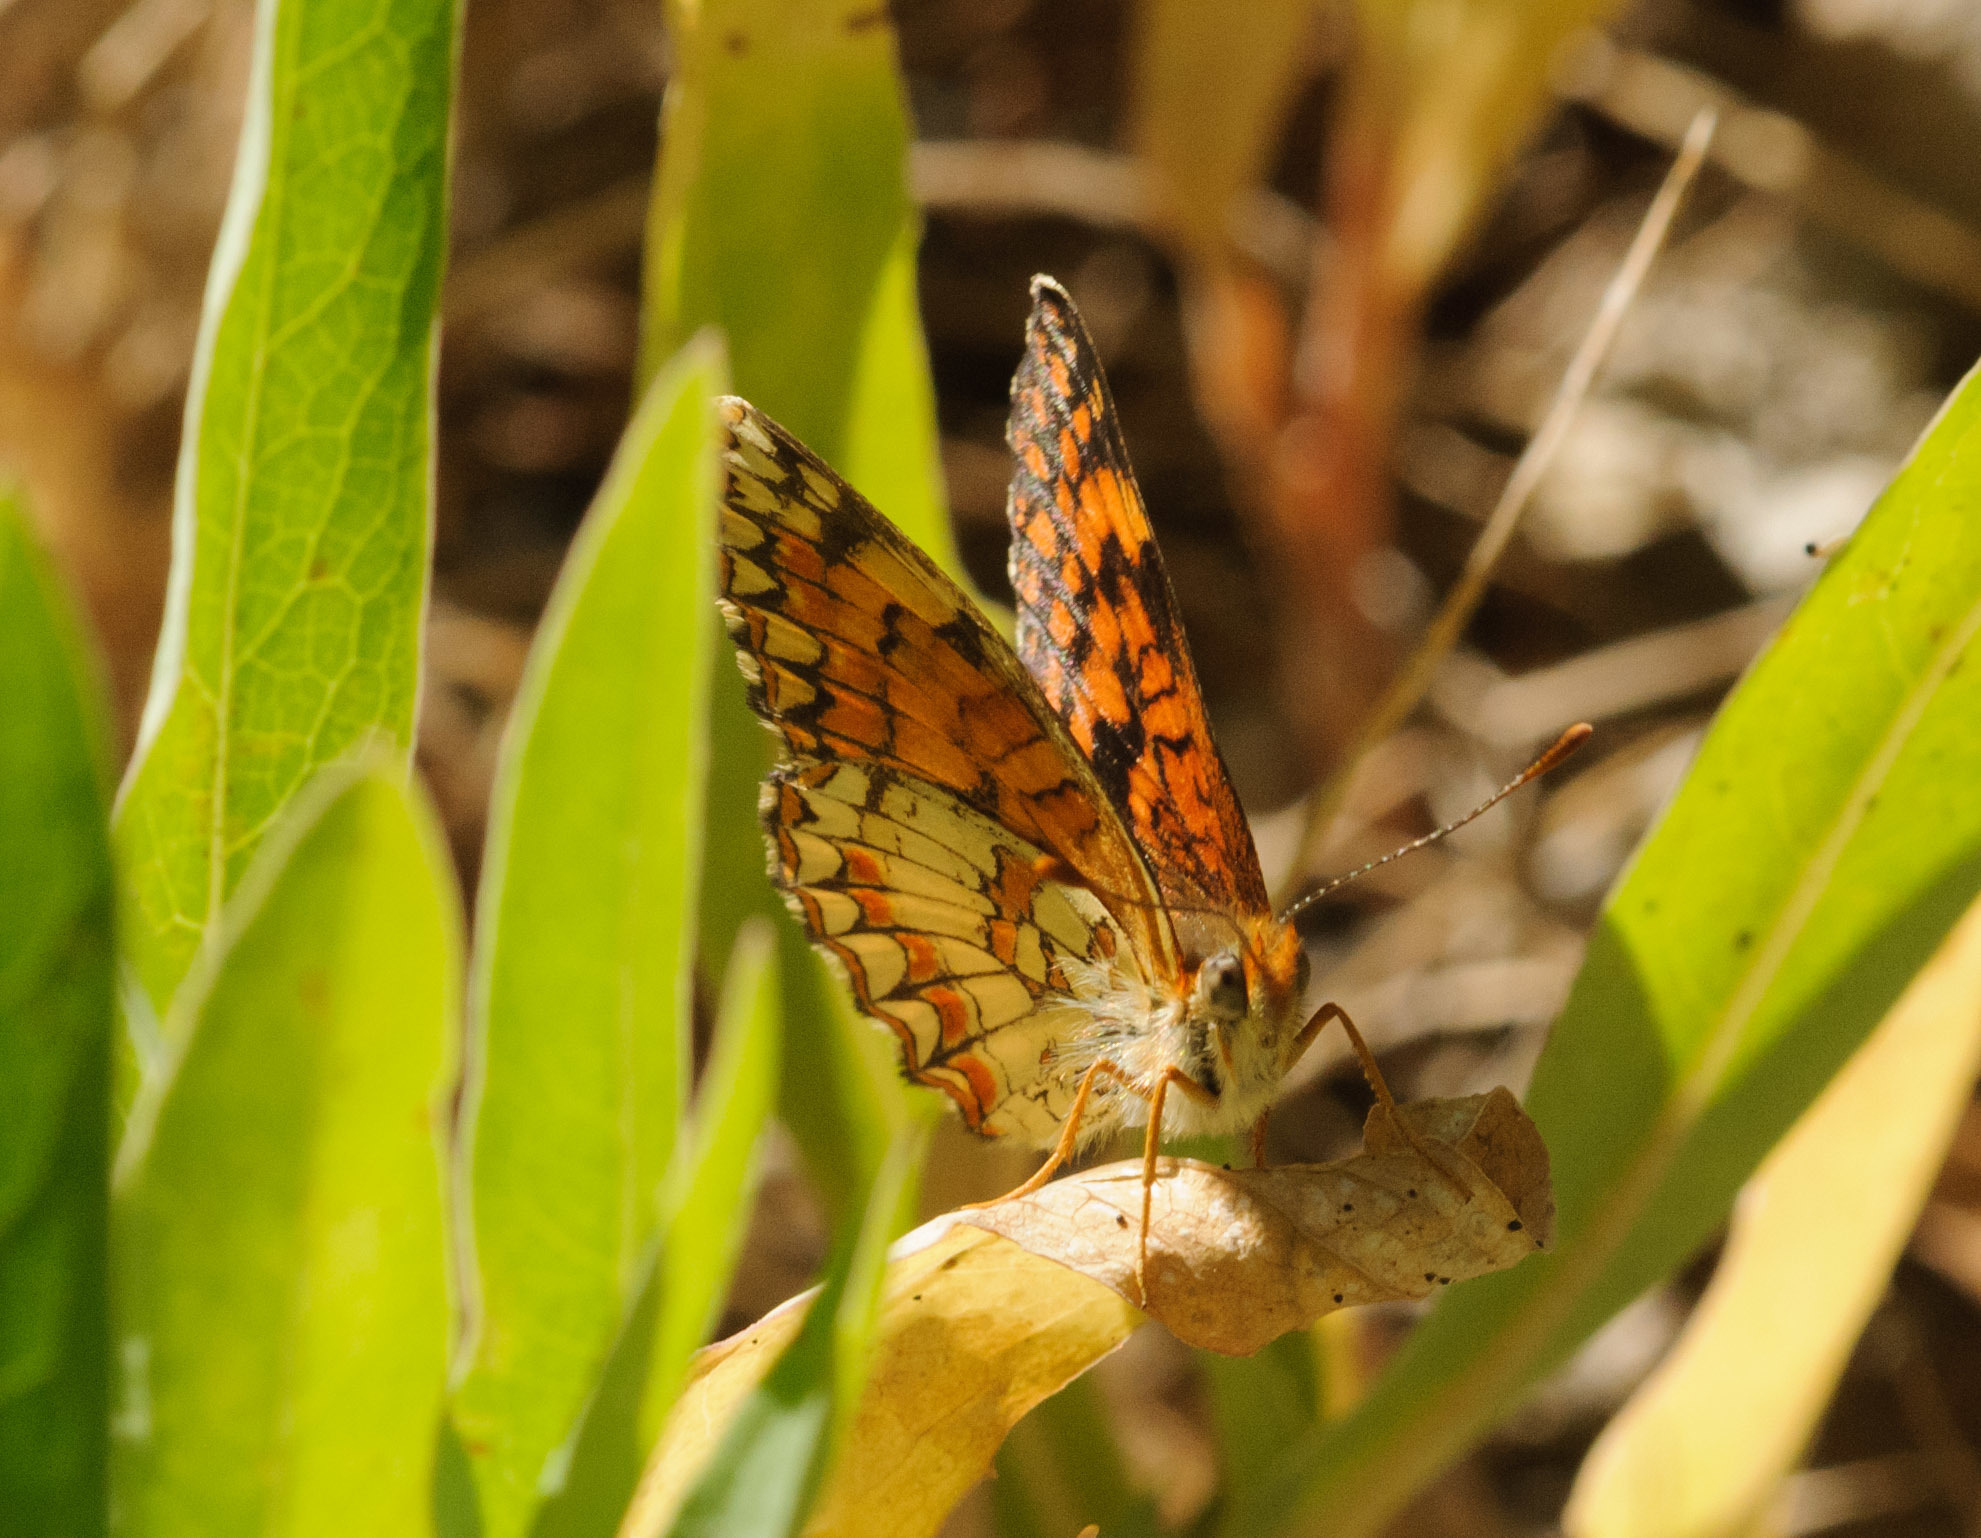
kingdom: Animalia
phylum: Arthropoda
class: Insecta
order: Lepidoptera
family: Nymphalidae
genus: Chlosyne
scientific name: Chlosyne palla
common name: Northern checkerspot
